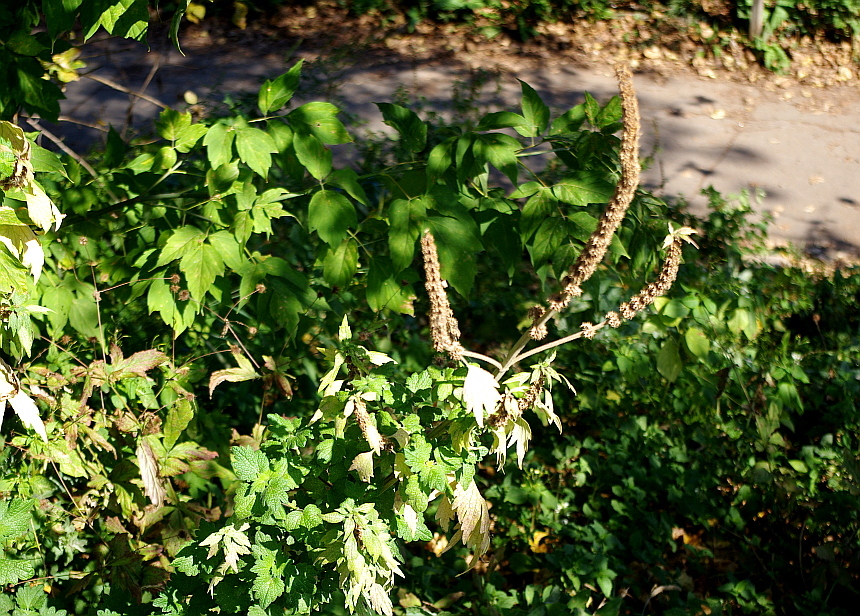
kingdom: Plantae
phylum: Tracheophyta
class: Magnoliopsida
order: Lamiales
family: Lamiaceae
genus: Leonurus
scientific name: Leonurus quinquelobatus
